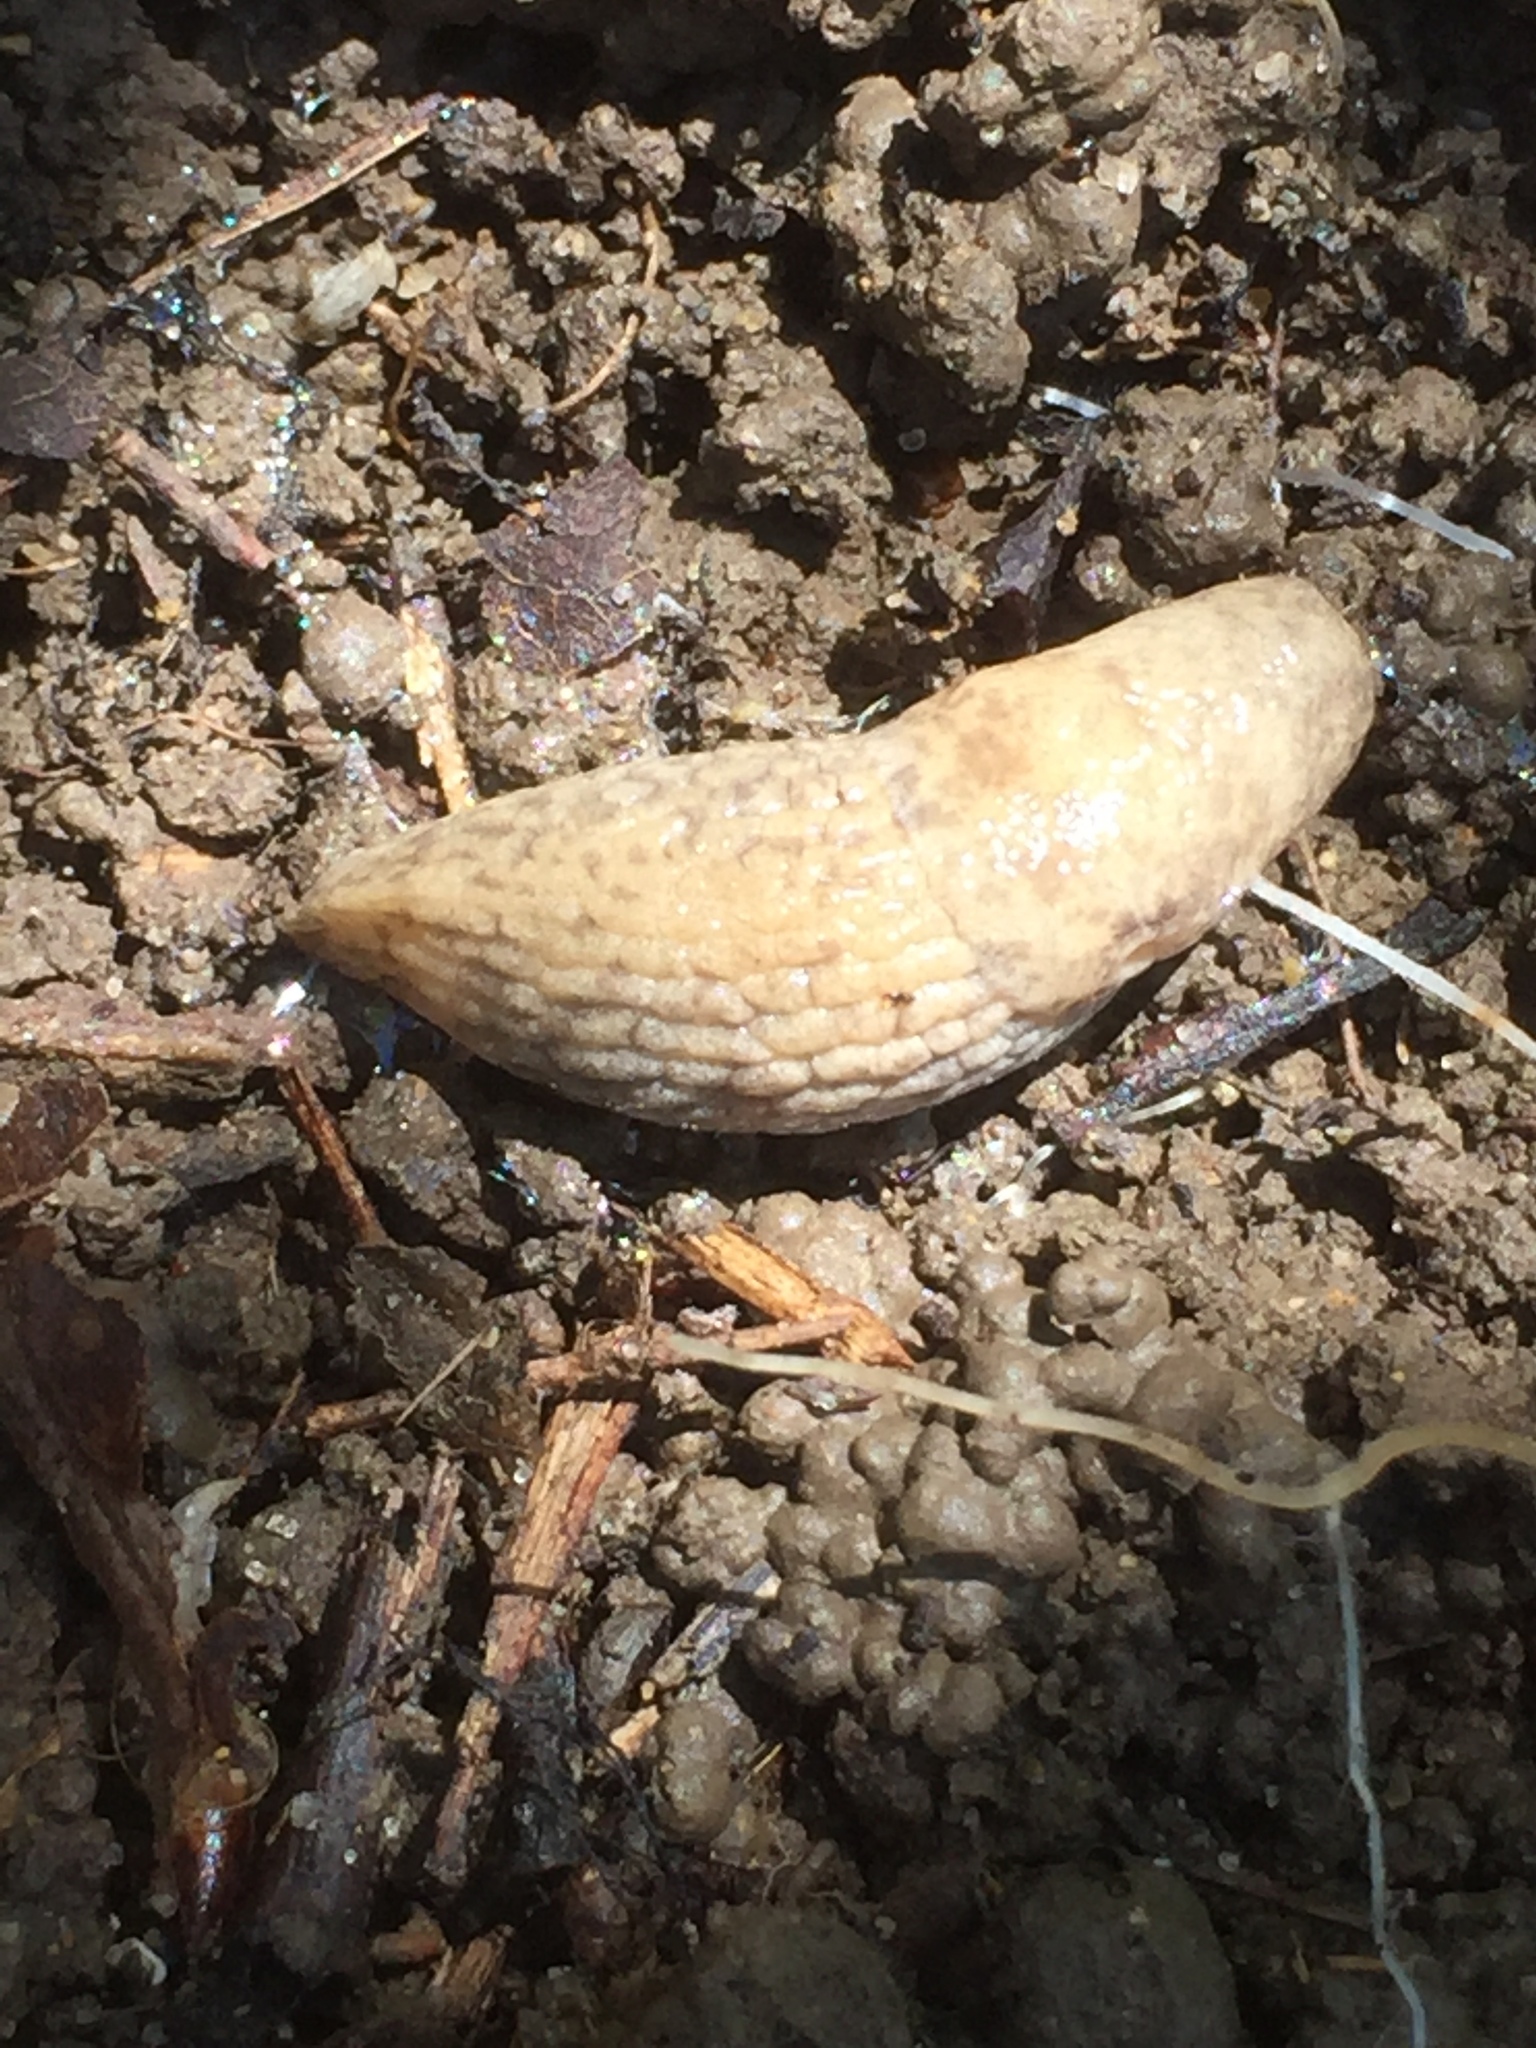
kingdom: Animalia
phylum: Mollusca
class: Gastropoda
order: Stylommatophora
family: Agriolimacidae
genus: Deroceras
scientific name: Deroceras reticulatum
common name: Gray field slug
